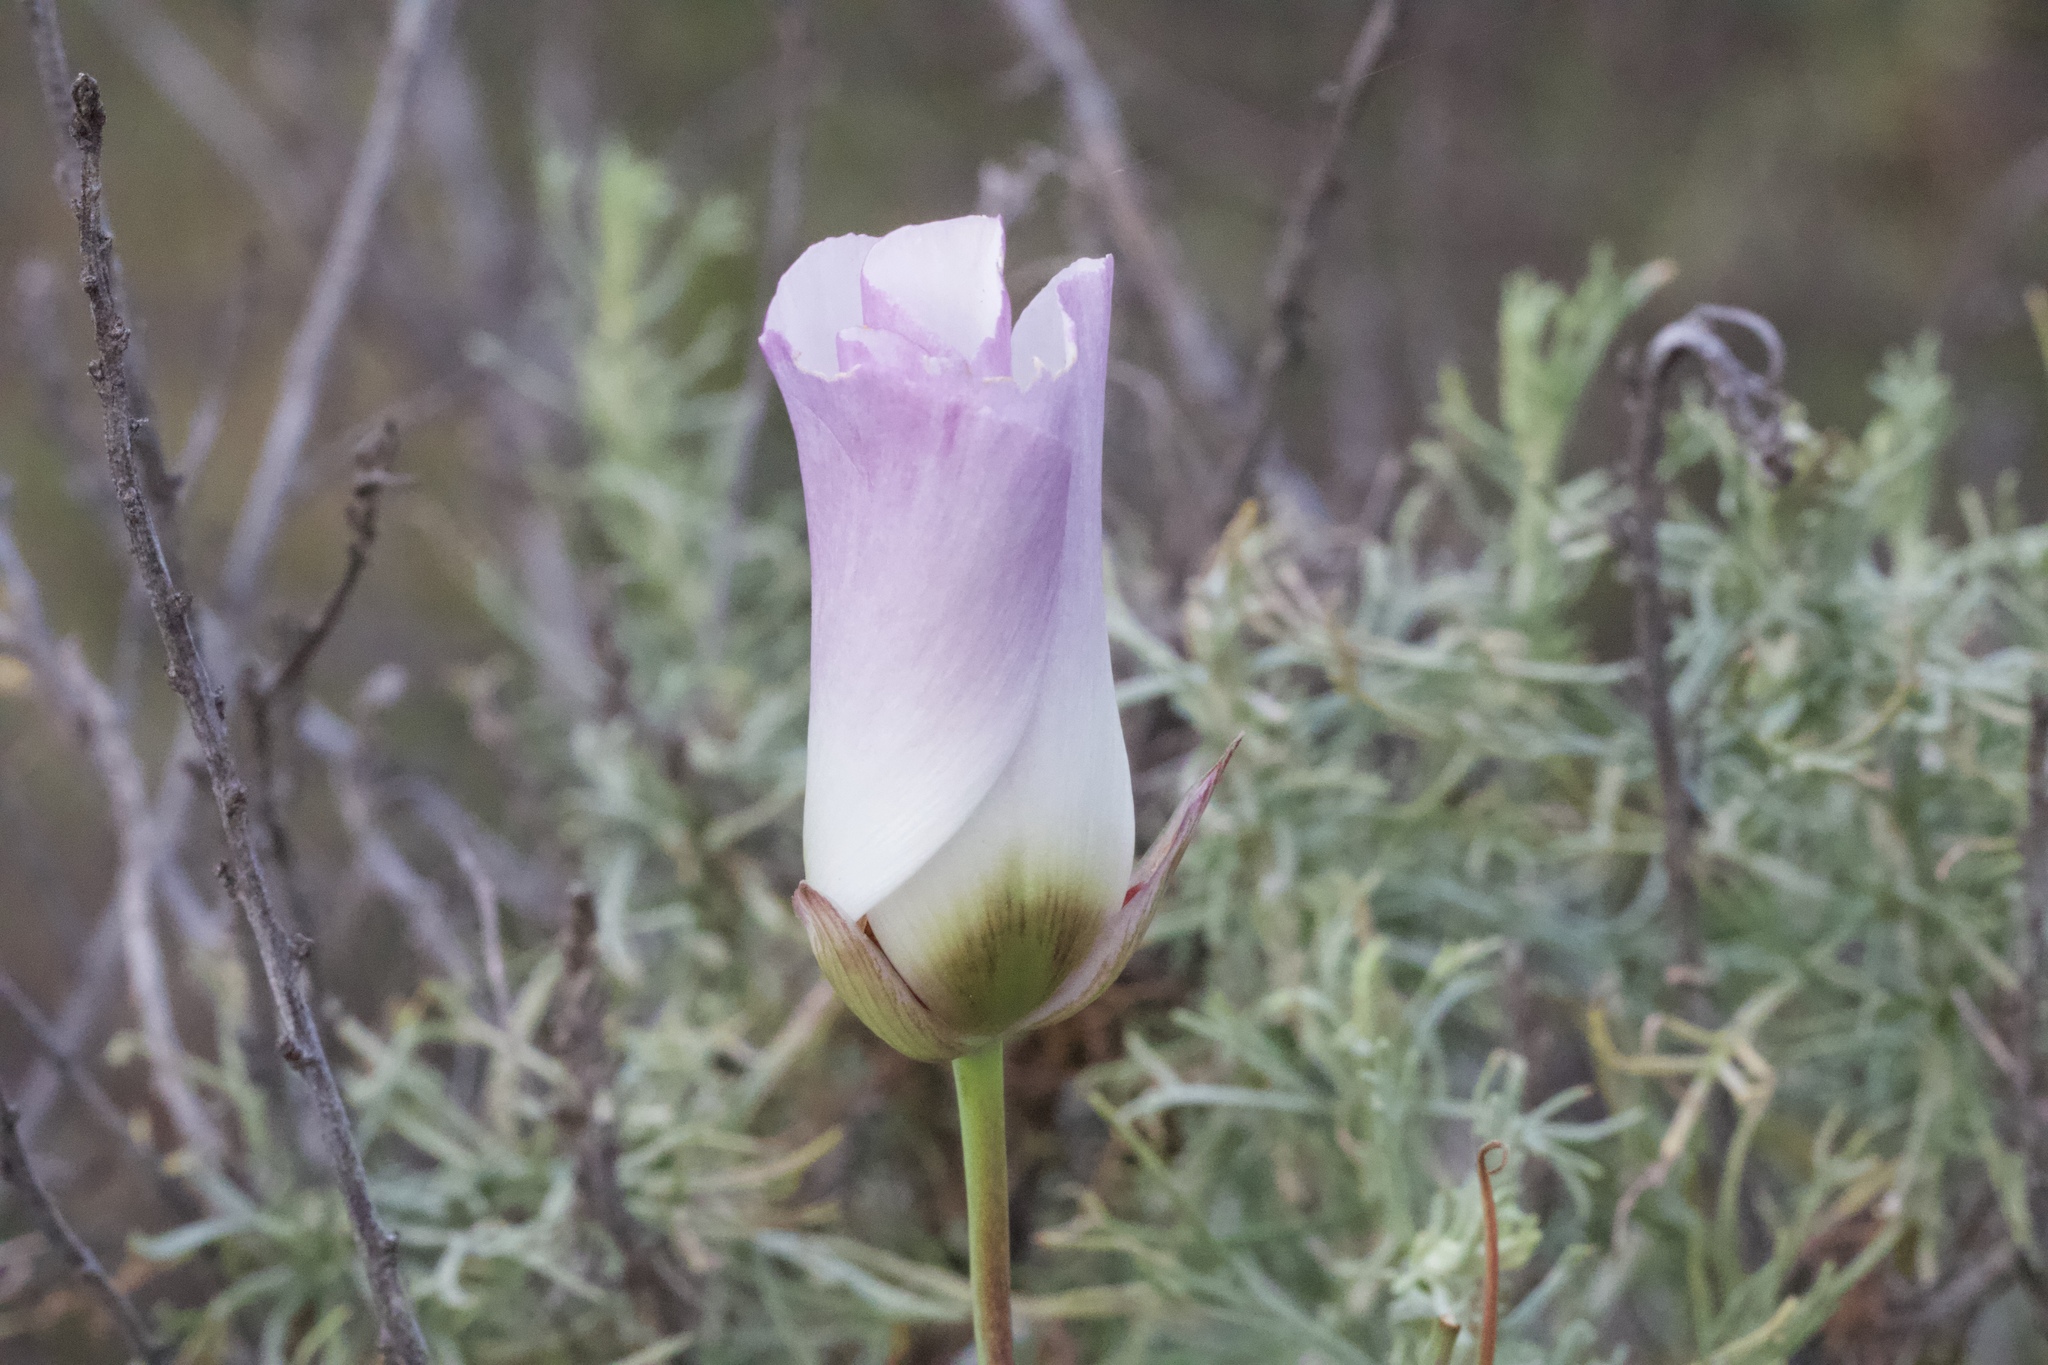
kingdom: Plantae
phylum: Tracheophyta
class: Liliopsida
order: Liliales
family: Liliaceae
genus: Calochortus
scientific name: Calochortus catalinae
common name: Catalina mariposa-lily
